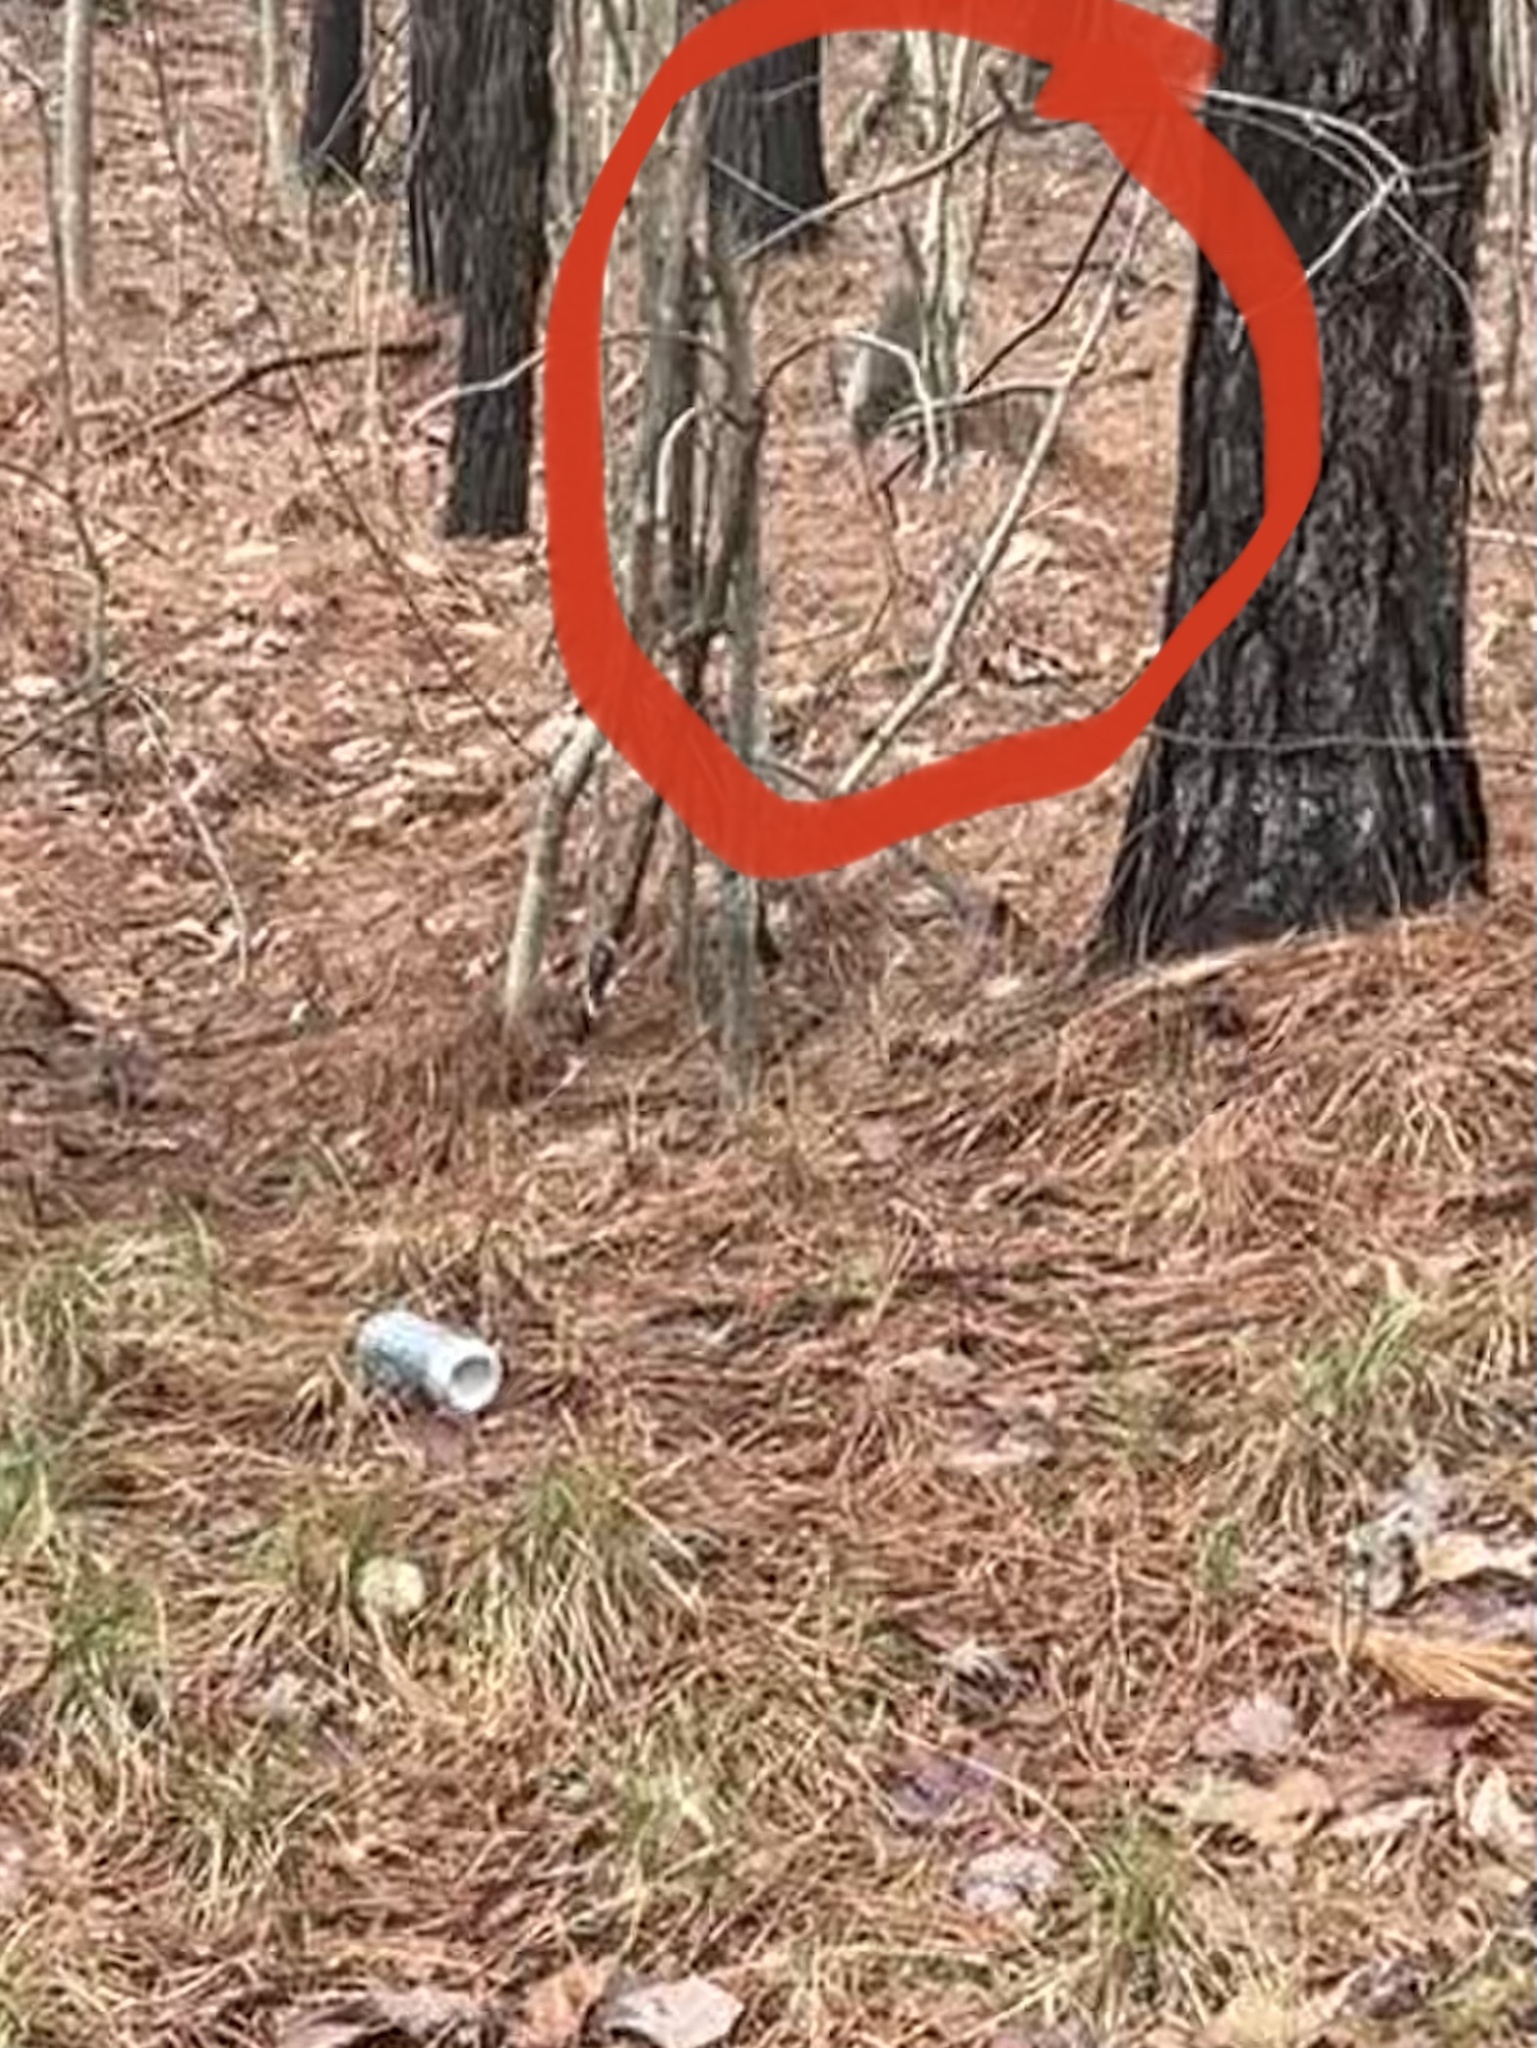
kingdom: Animalia
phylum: Chordata
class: Mammalia
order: Carnivora
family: Procyonidae
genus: Procyon
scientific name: Procyon lotor
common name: Raccoon
